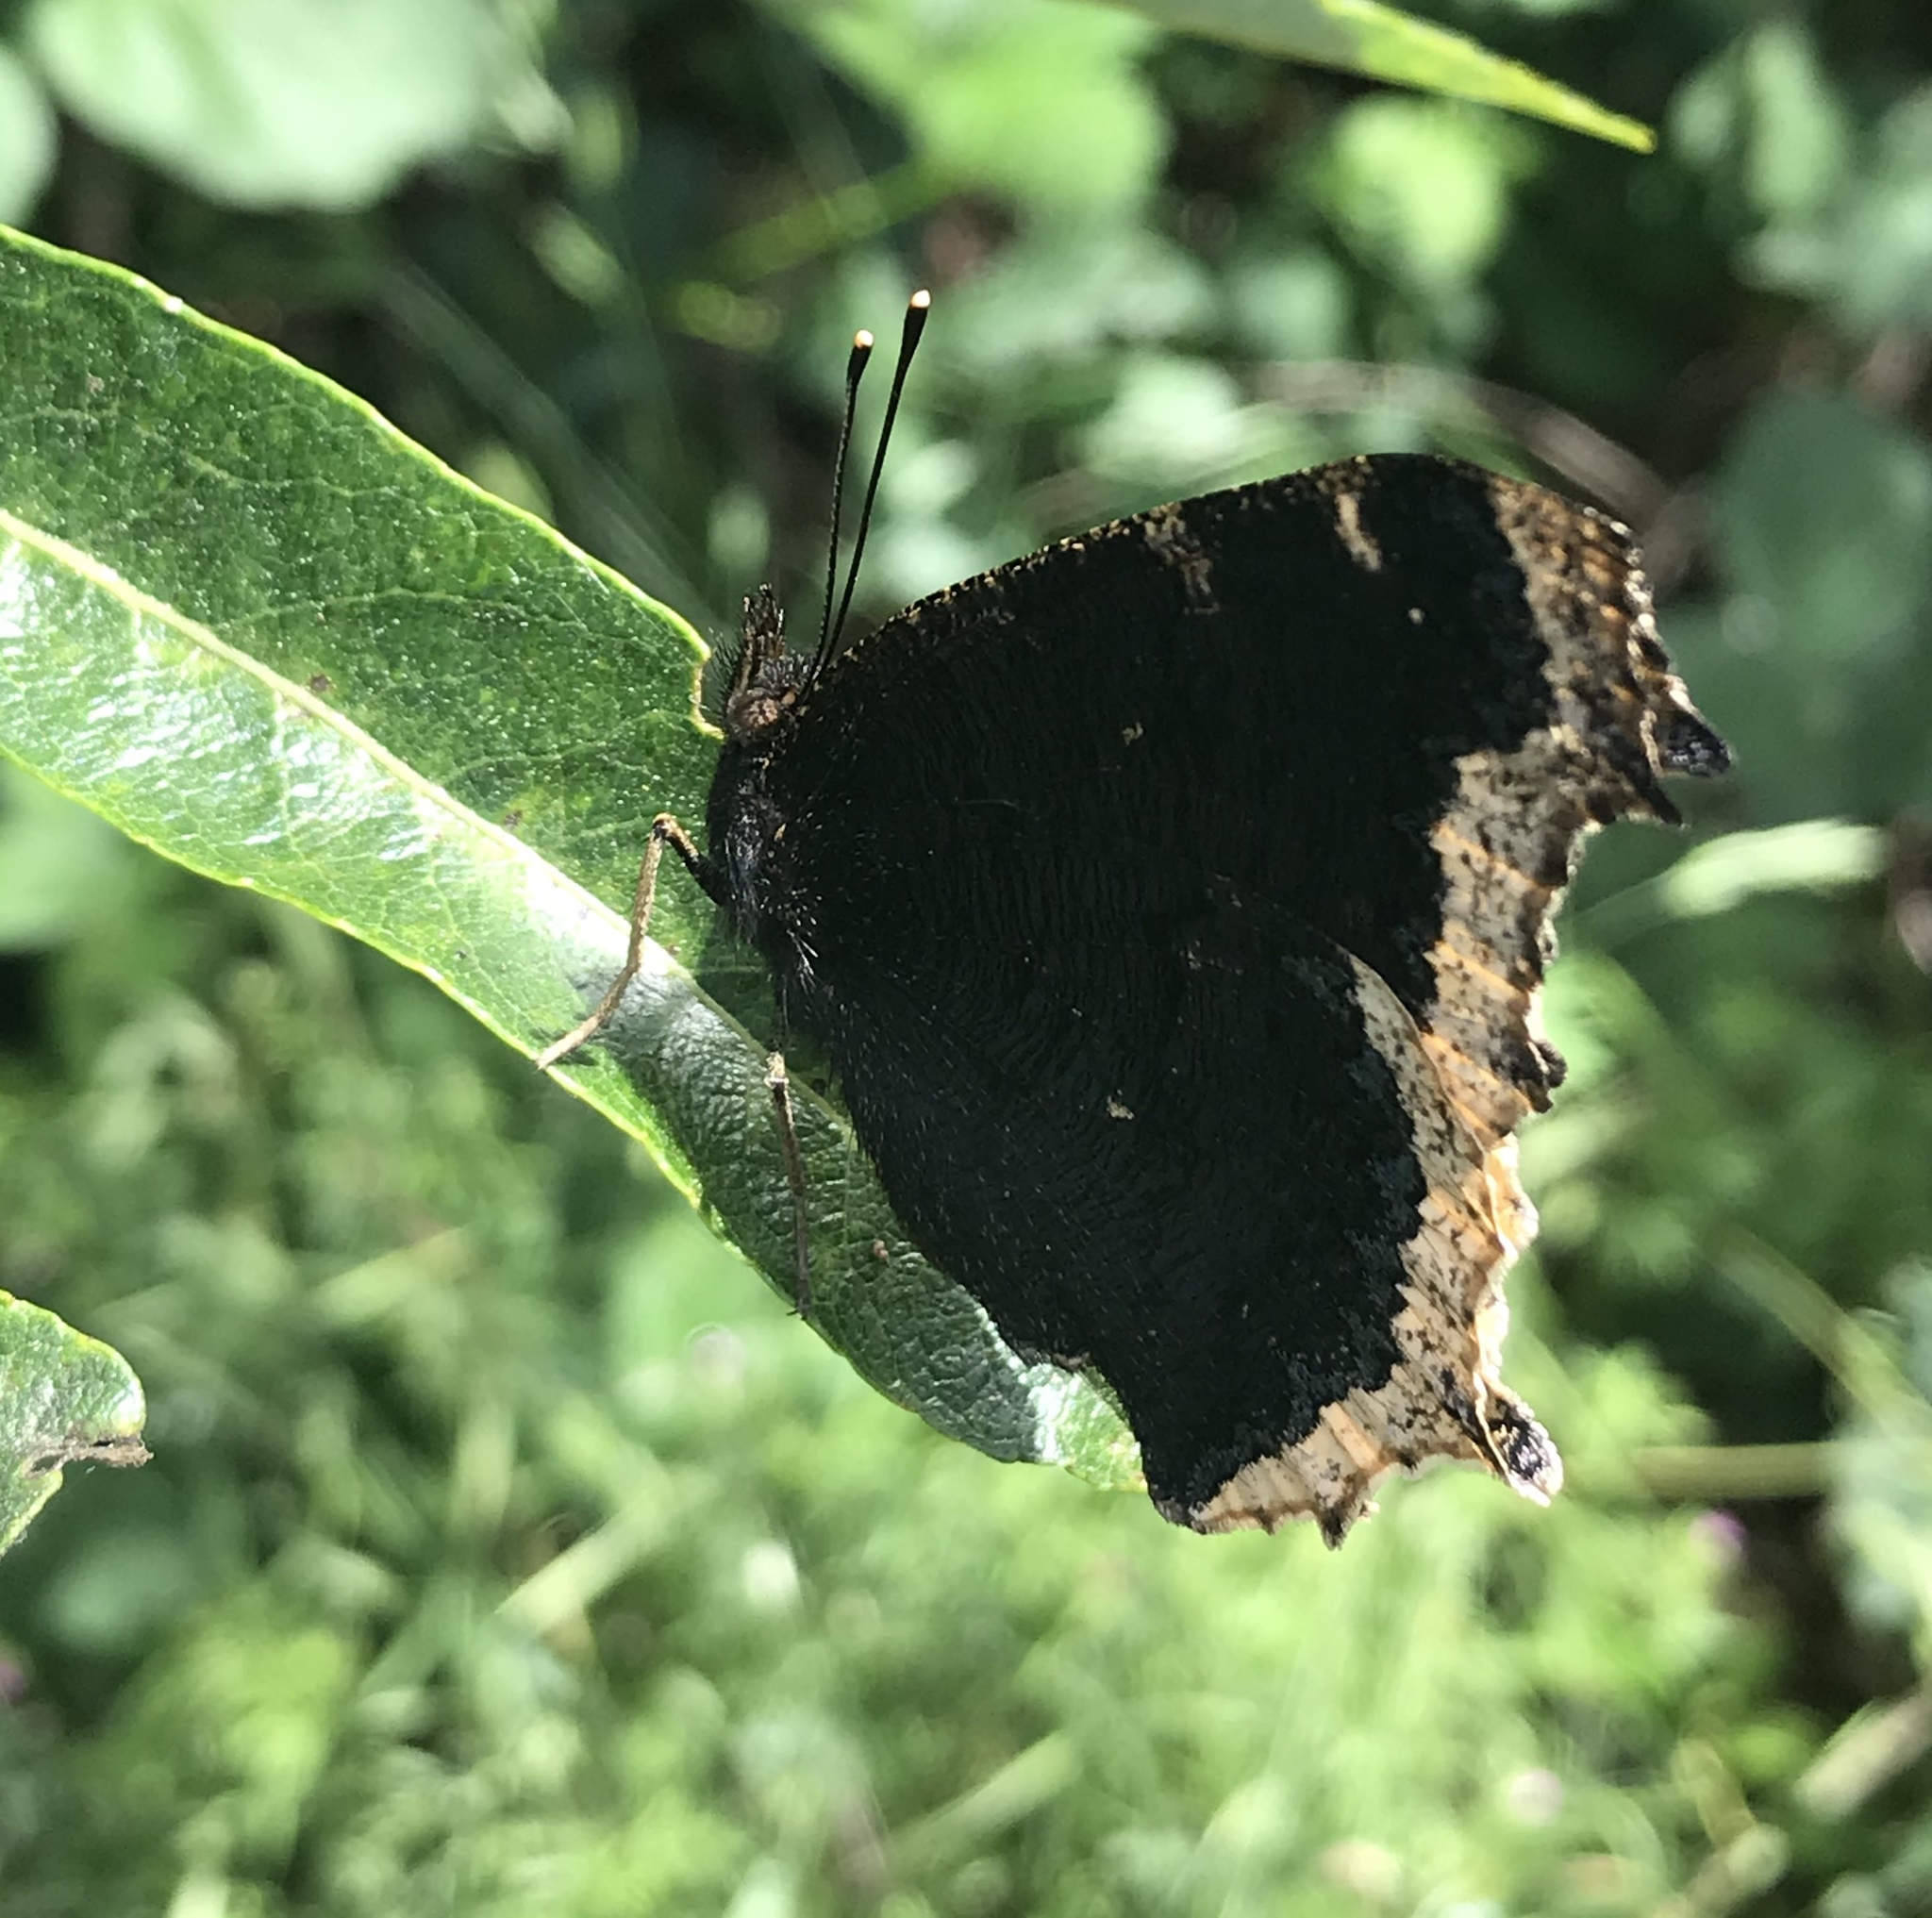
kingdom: Animalia
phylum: Arthropoda
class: Insecta
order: Lepidoptera
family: Nymphalidae
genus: Nymphalis
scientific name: Nymphalis antiopa
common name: Camberwell beauty
